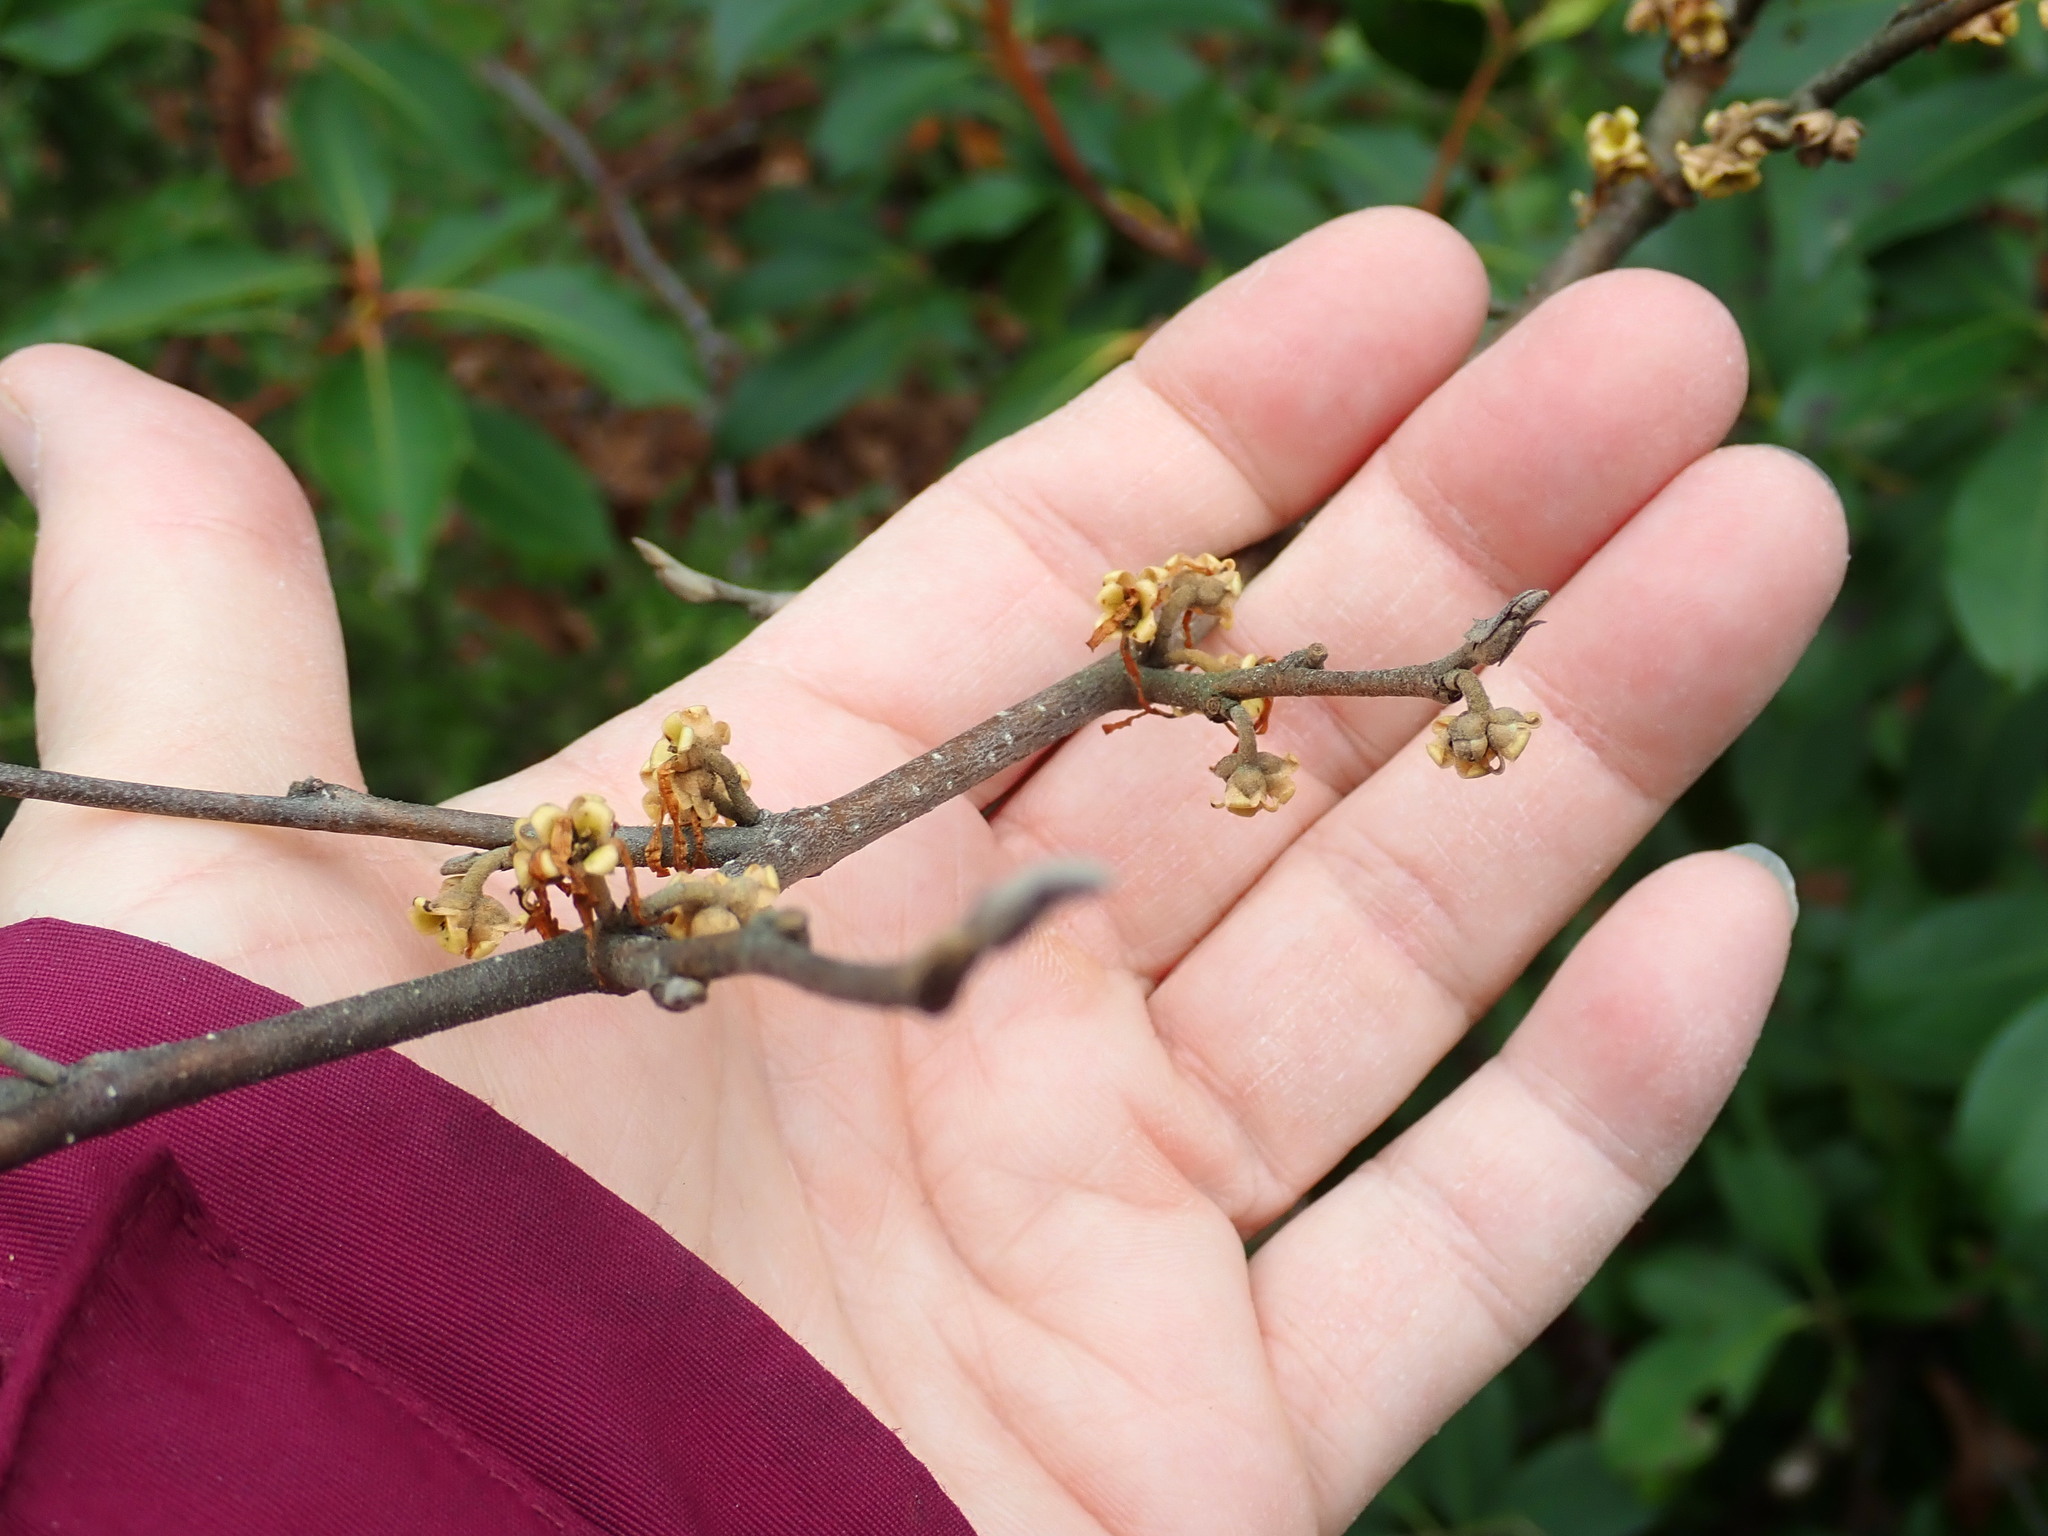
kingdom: Plantae
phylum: Tracheophyta
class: Magnoliopsida
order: Saxifragales
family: Hamamelidaceae
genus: Hamamelis
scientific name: Hamamelis virginiana
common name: Witch-hazel
